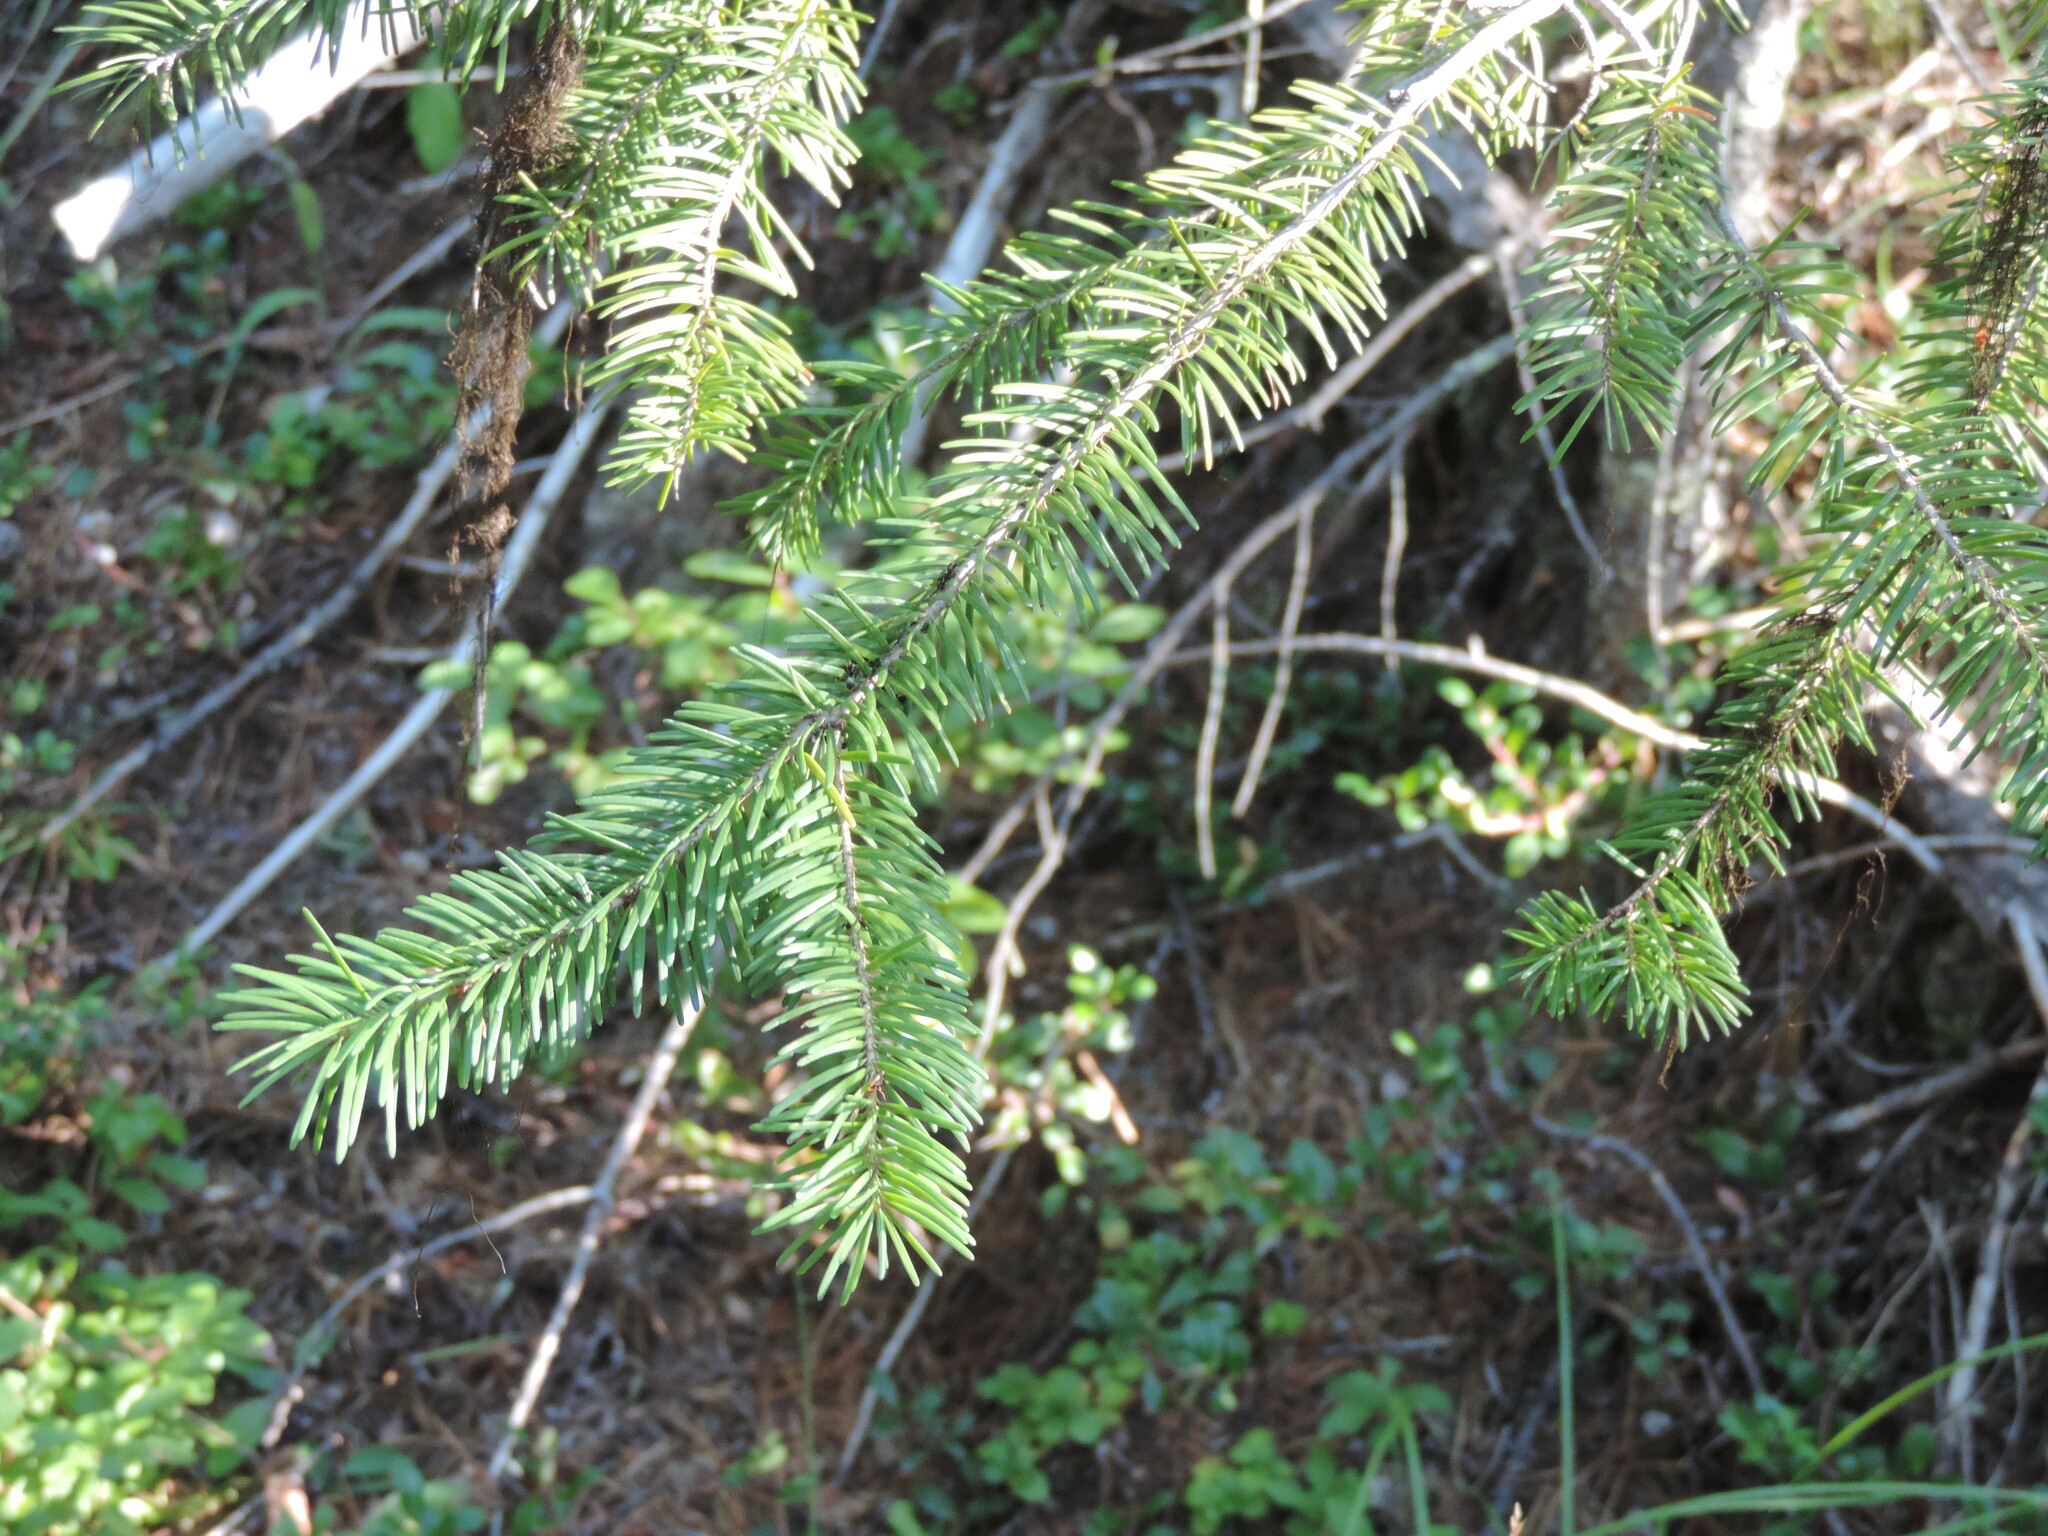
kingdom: Plantae
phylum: Tracheophyta
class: Pinopsida
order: Pinales
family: Pinaceae
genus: Pseudotsuga
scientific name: Pseudotsuga menziesii
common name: Douglas fir
